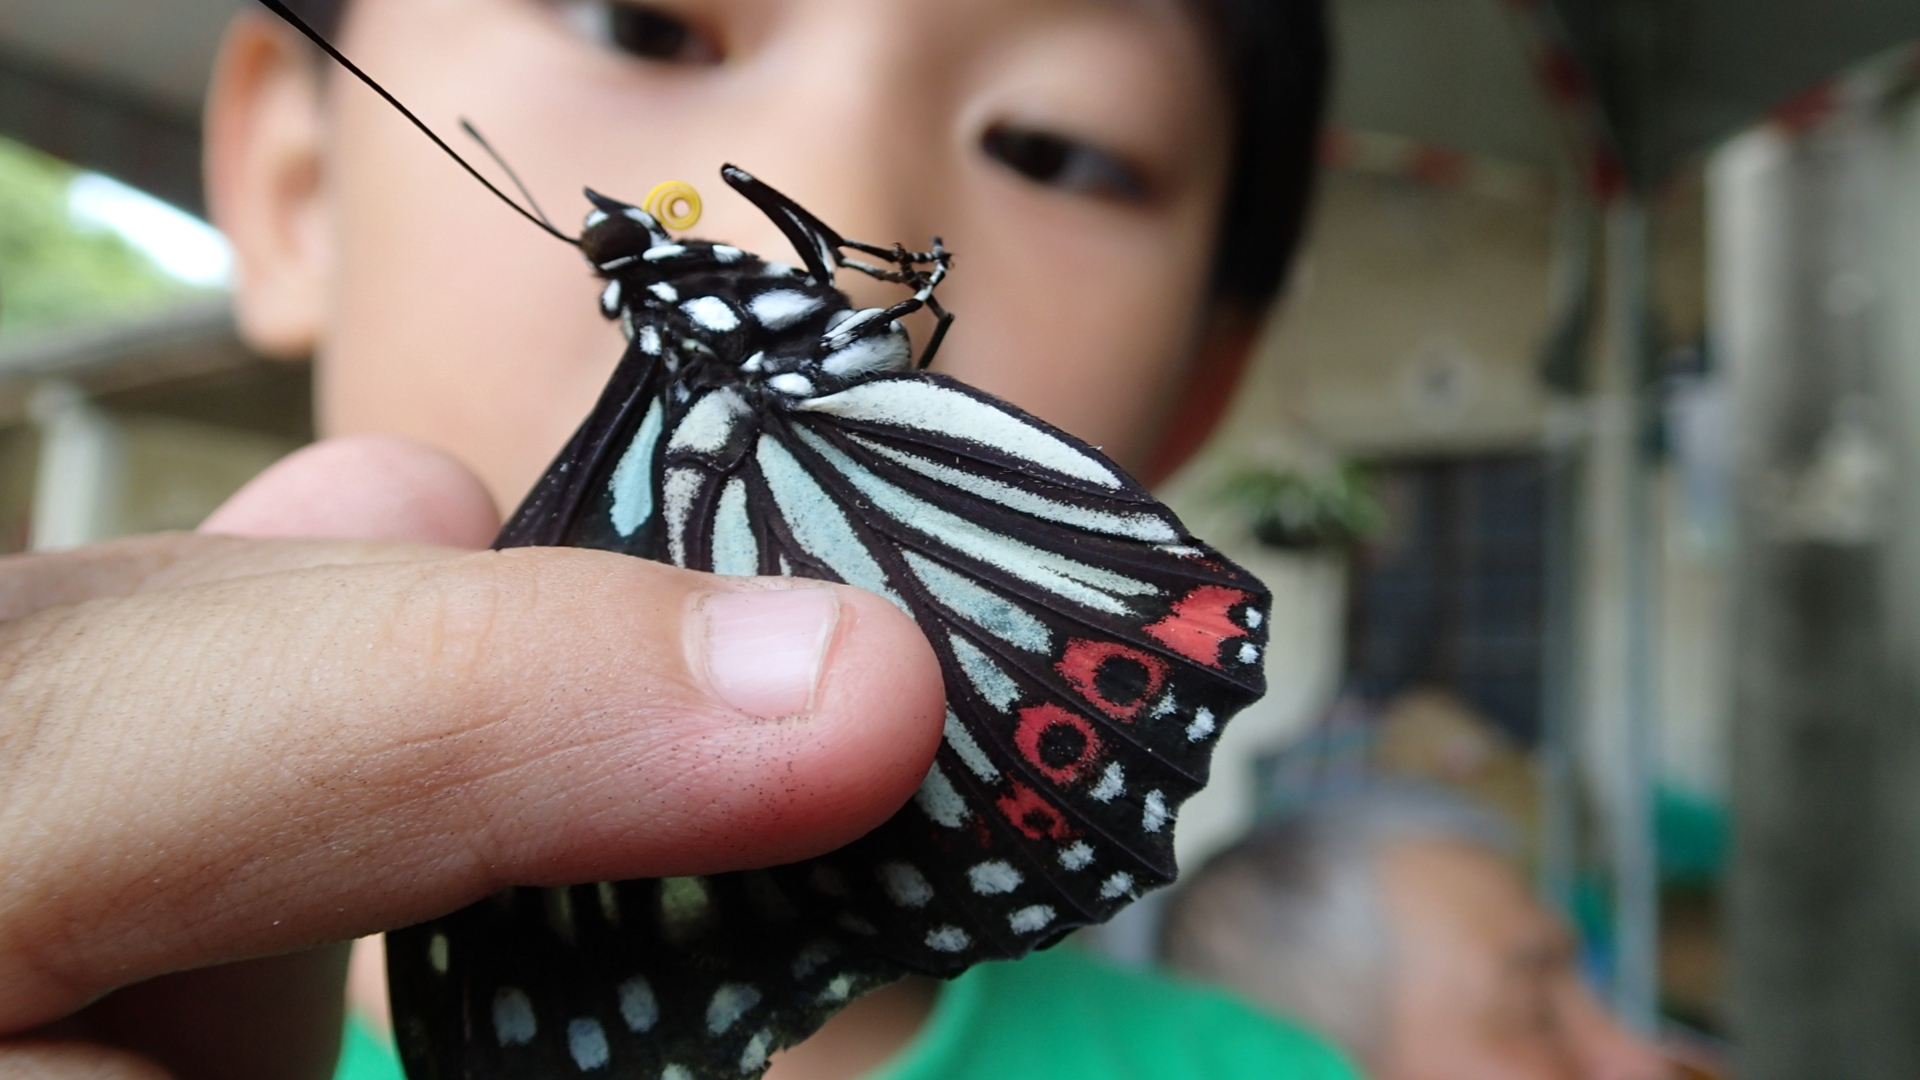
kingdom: Animalia
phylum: Arthropoda
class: Insecta
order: Lepidoptera
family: Nymphalidae
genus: Hestina
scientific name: Hestina assimilis
